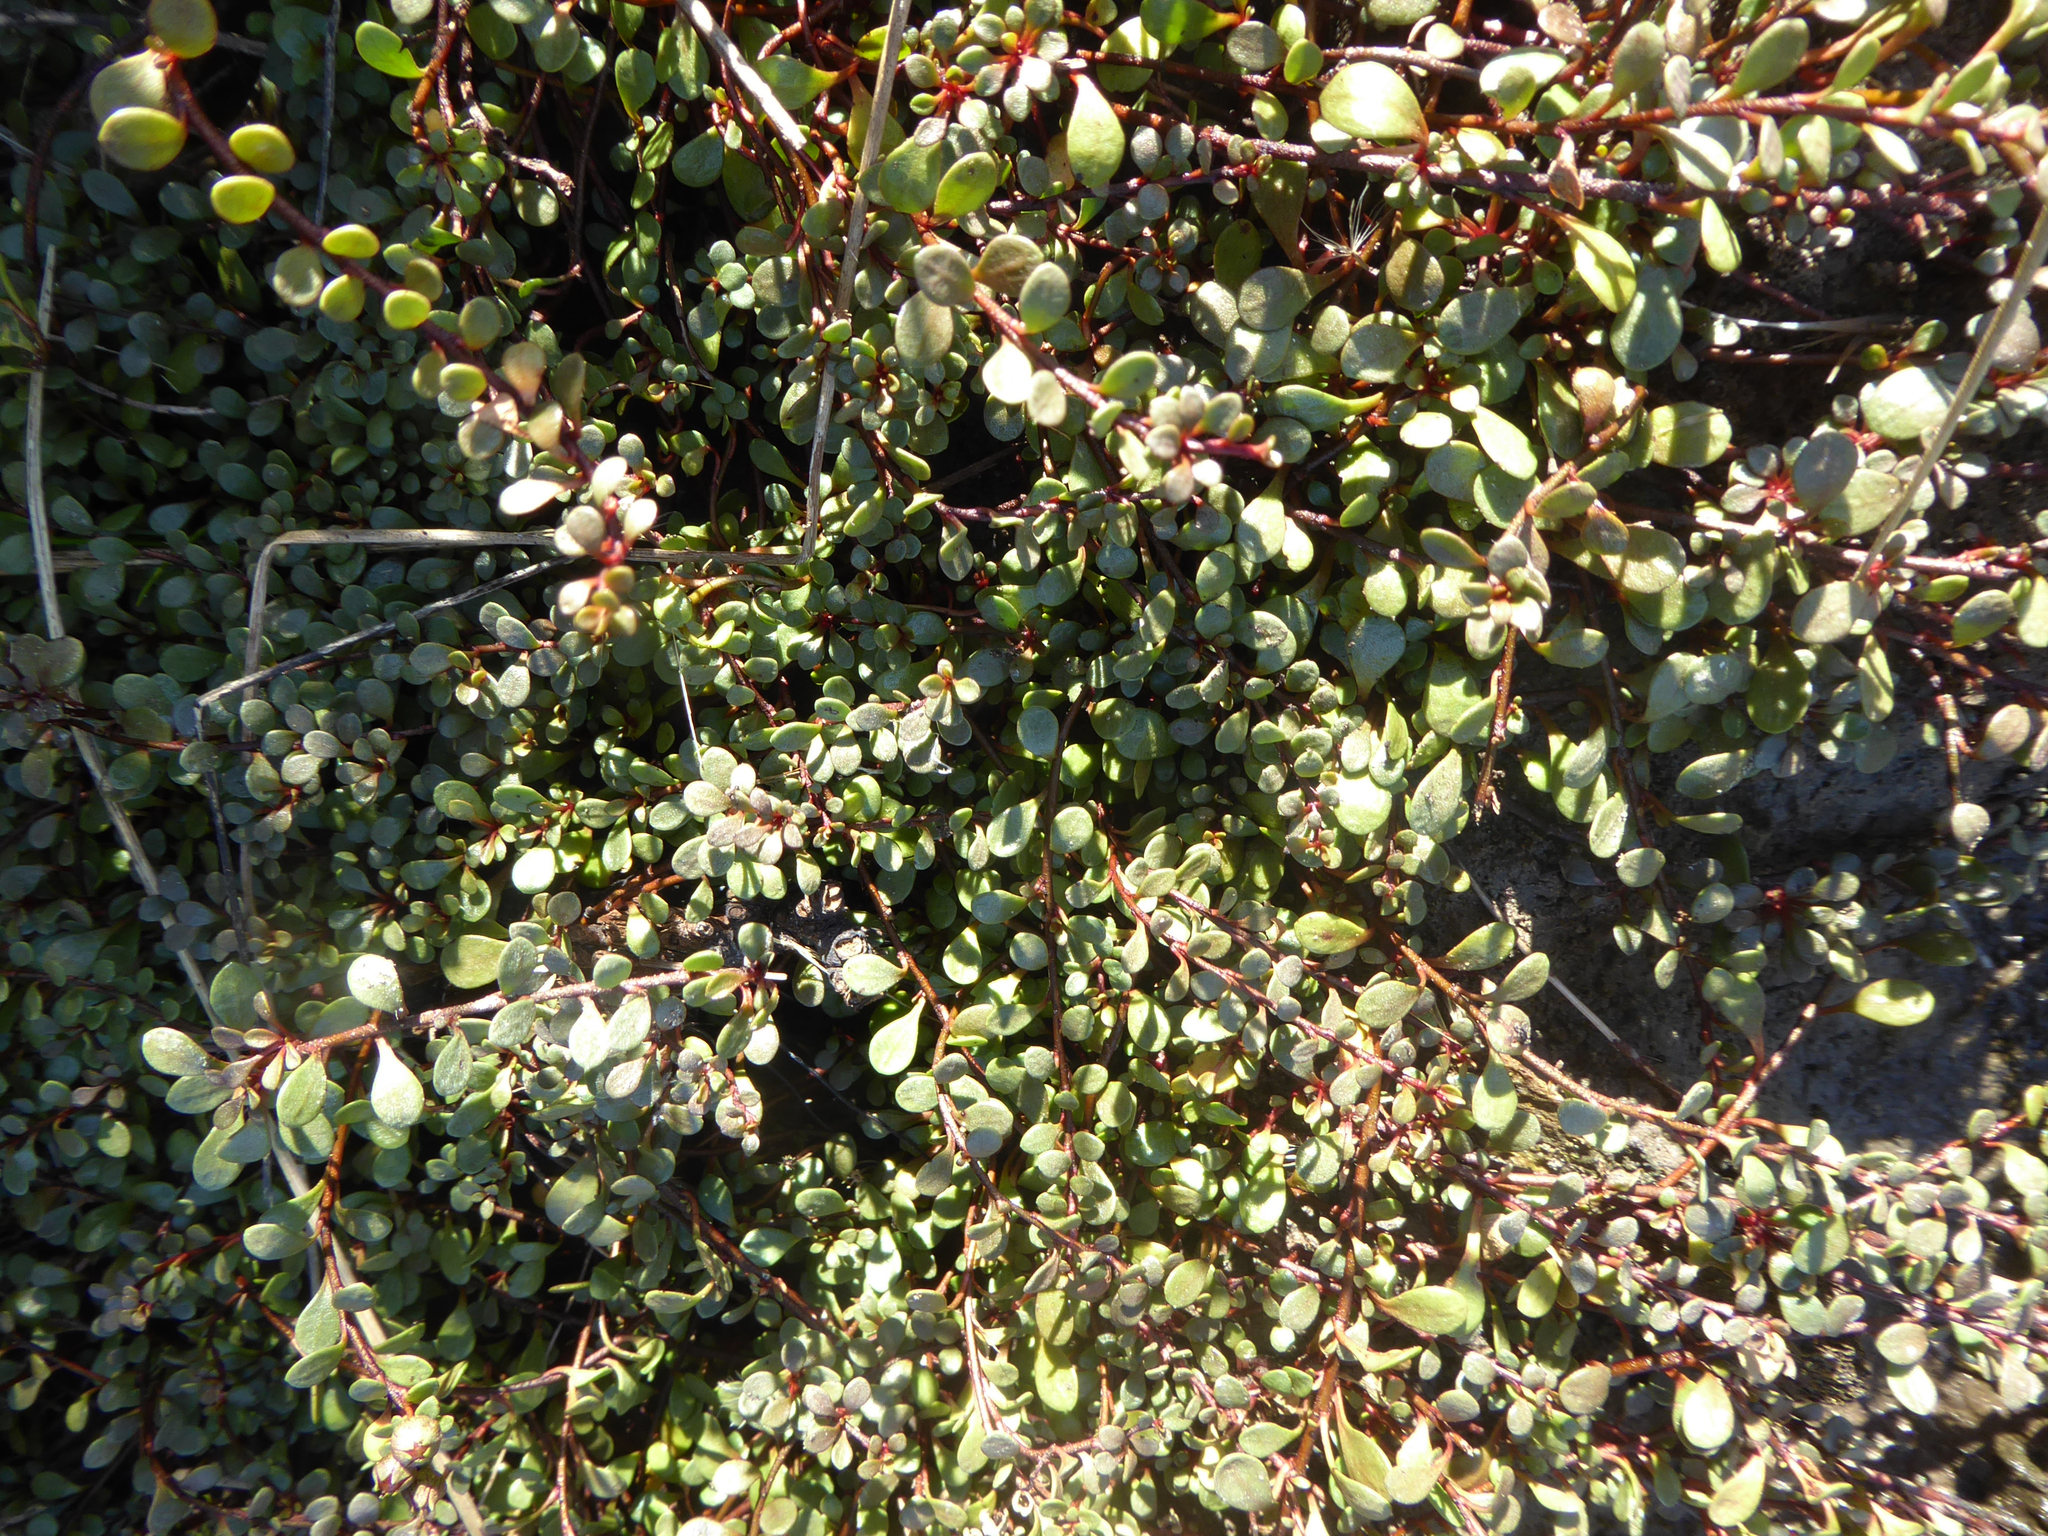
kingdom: Plantae
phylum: Tracheophyta
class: Magnoliopsida
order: Ericales
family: Primulaceae
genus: Samolus
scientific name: Samolus repens
